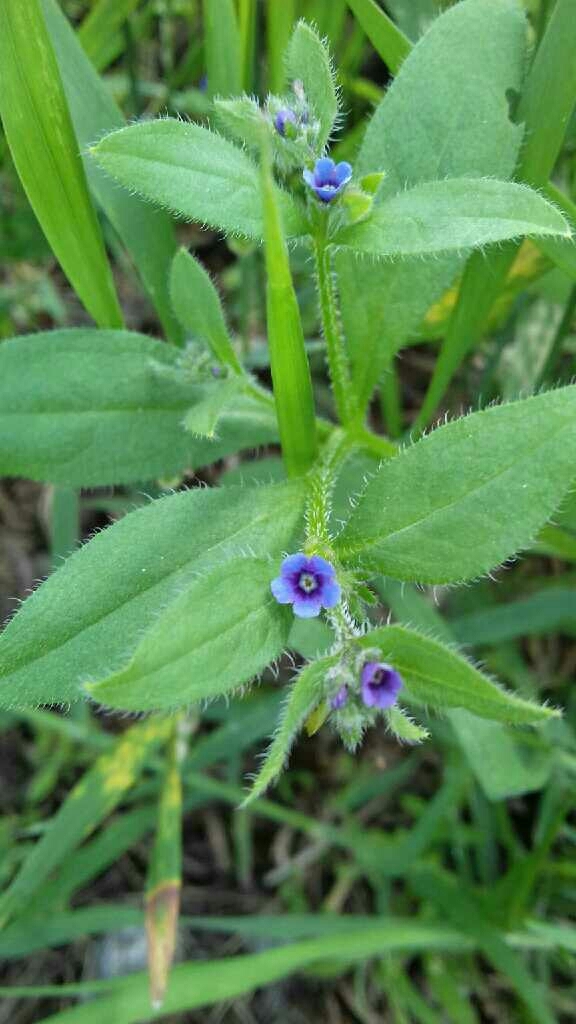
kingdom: Plantae
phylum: Tracheophyta
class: Magnoliopsida
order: Boraginales
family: Boraginaceae
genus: Asperugo
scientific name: Asperugo procumbens
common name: Madwort
